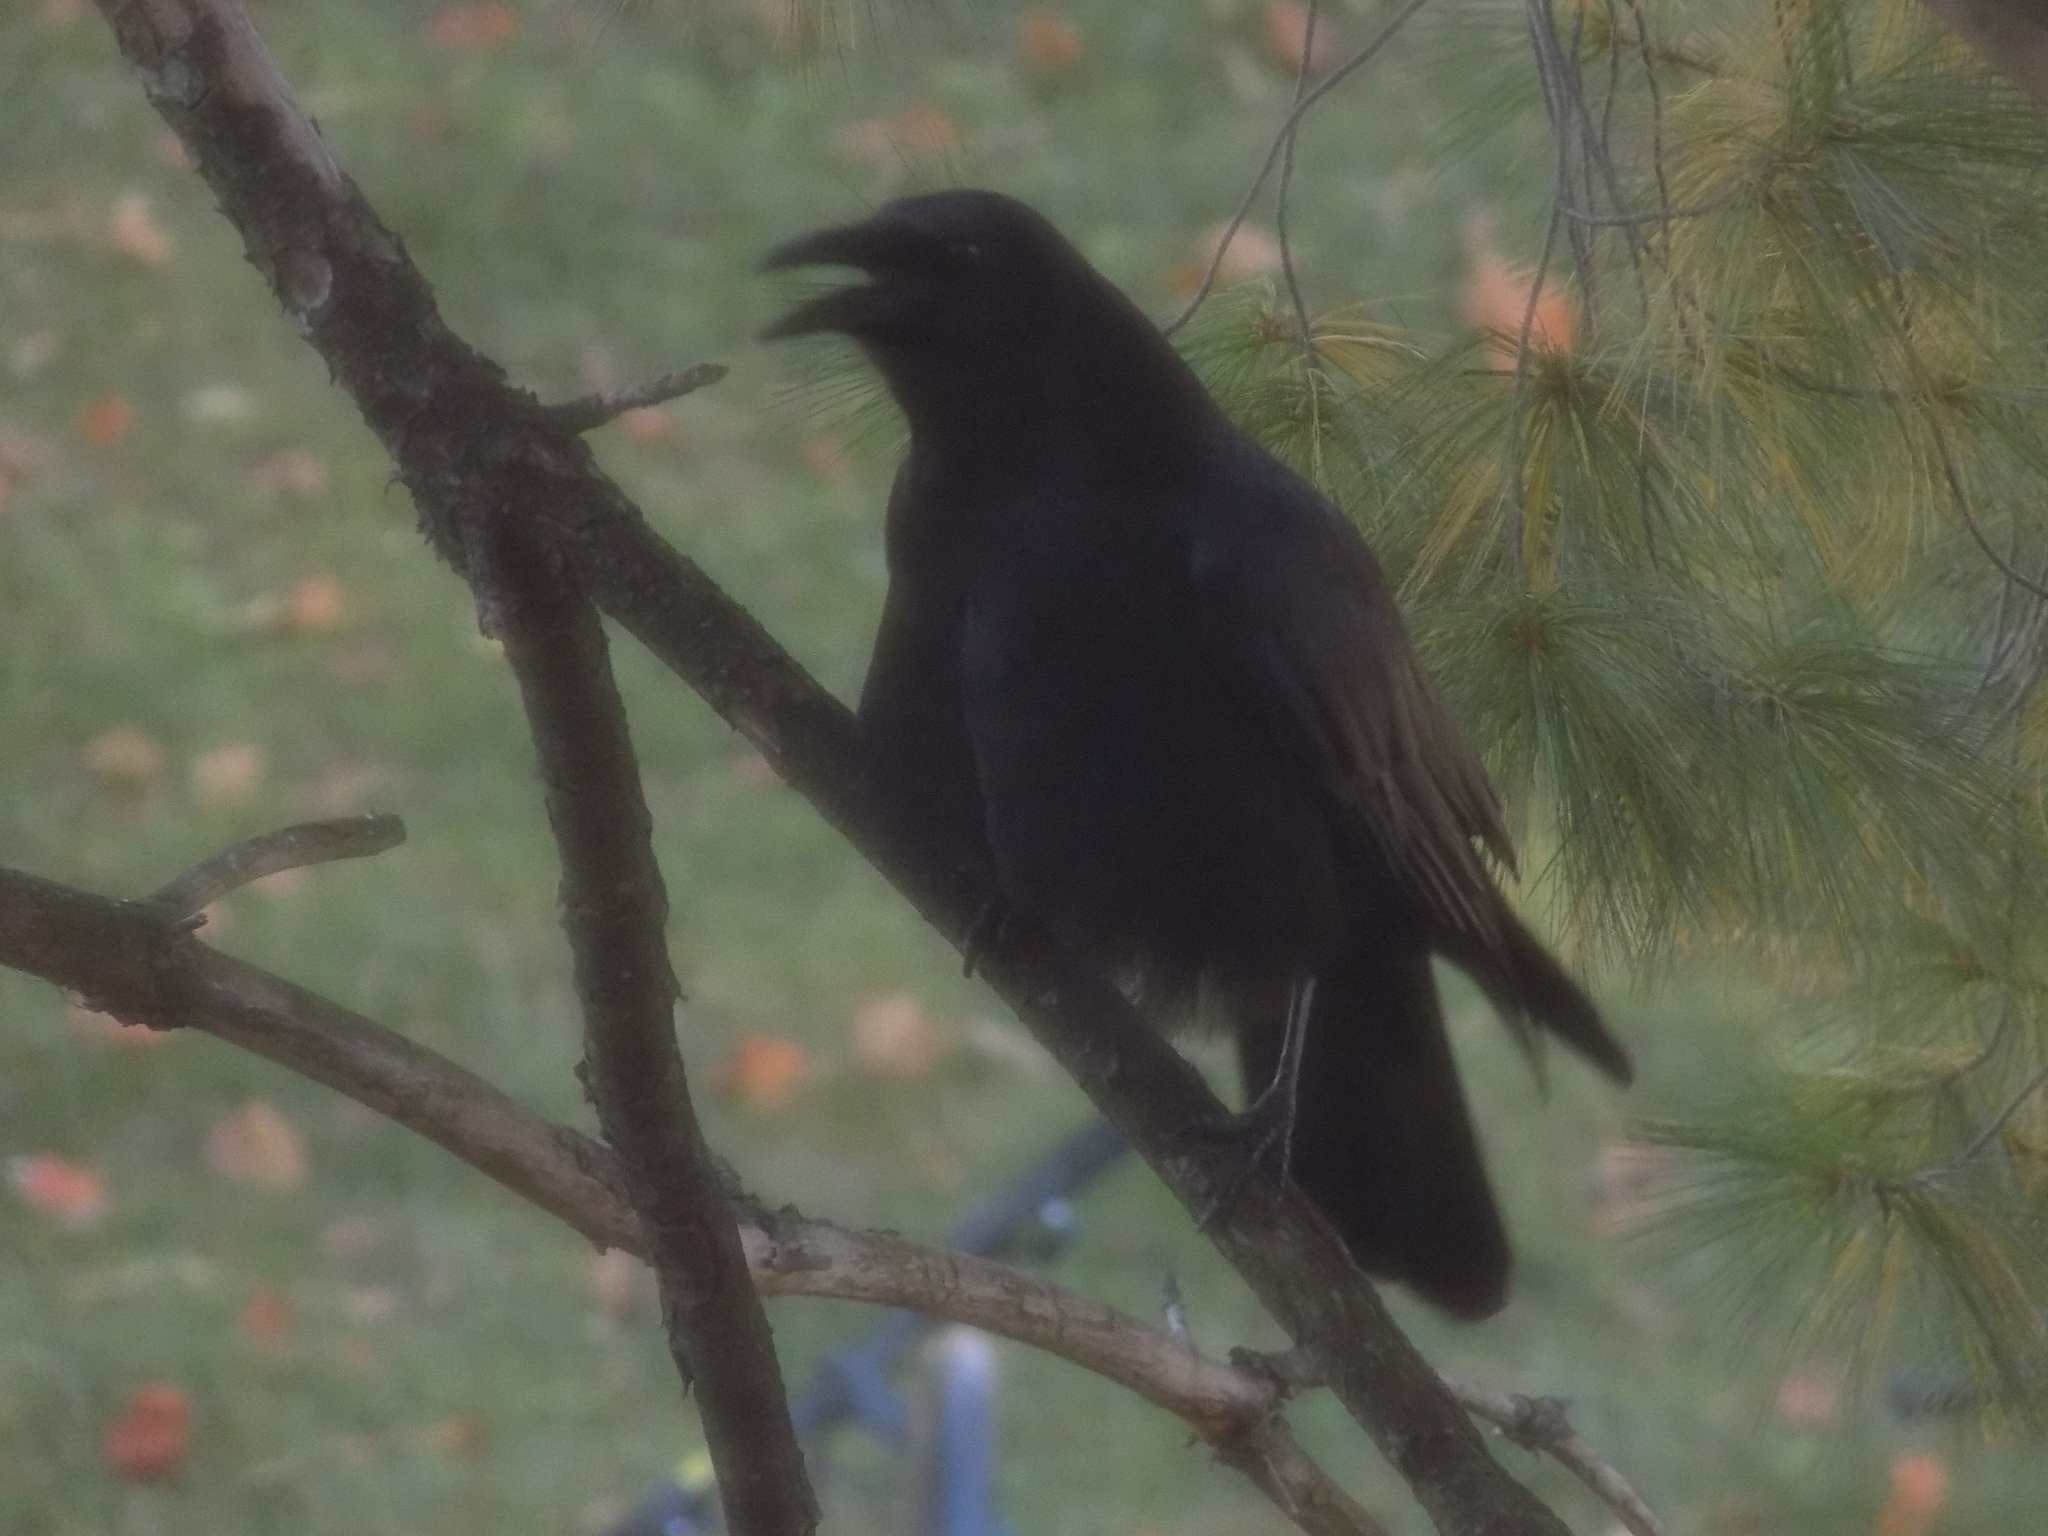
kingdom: Animalia
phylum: Chordata
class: Aves
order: Passeriformes
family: Corvidae
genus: Corvus
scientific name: Corvus brachyrhynchos
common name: American crow
